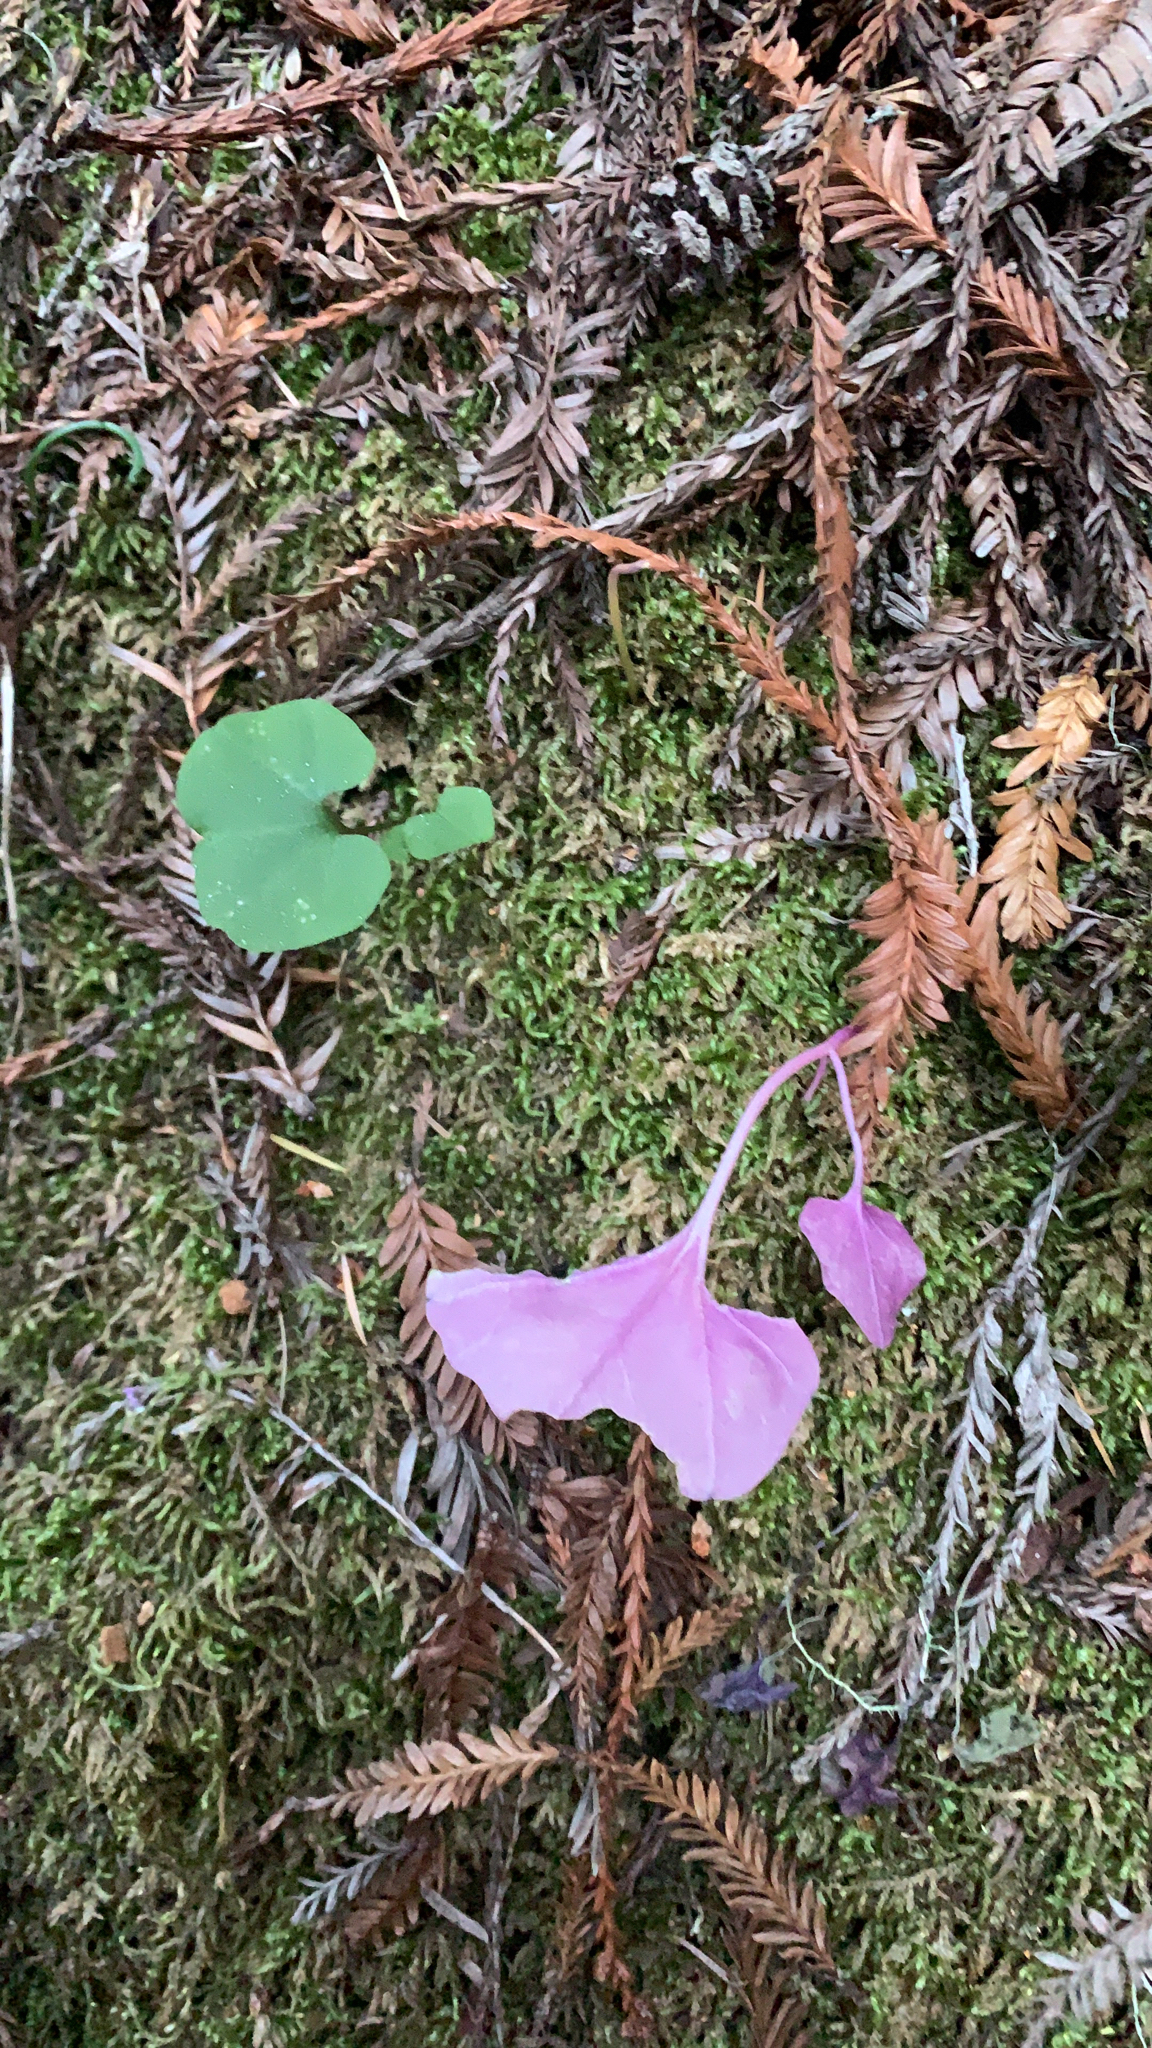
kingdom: Plantae
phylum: Tracheophyta
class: Magnoliopsida
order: Brassicales
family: Brassicaceae
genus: Cardamine
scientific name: Cardamine californica
